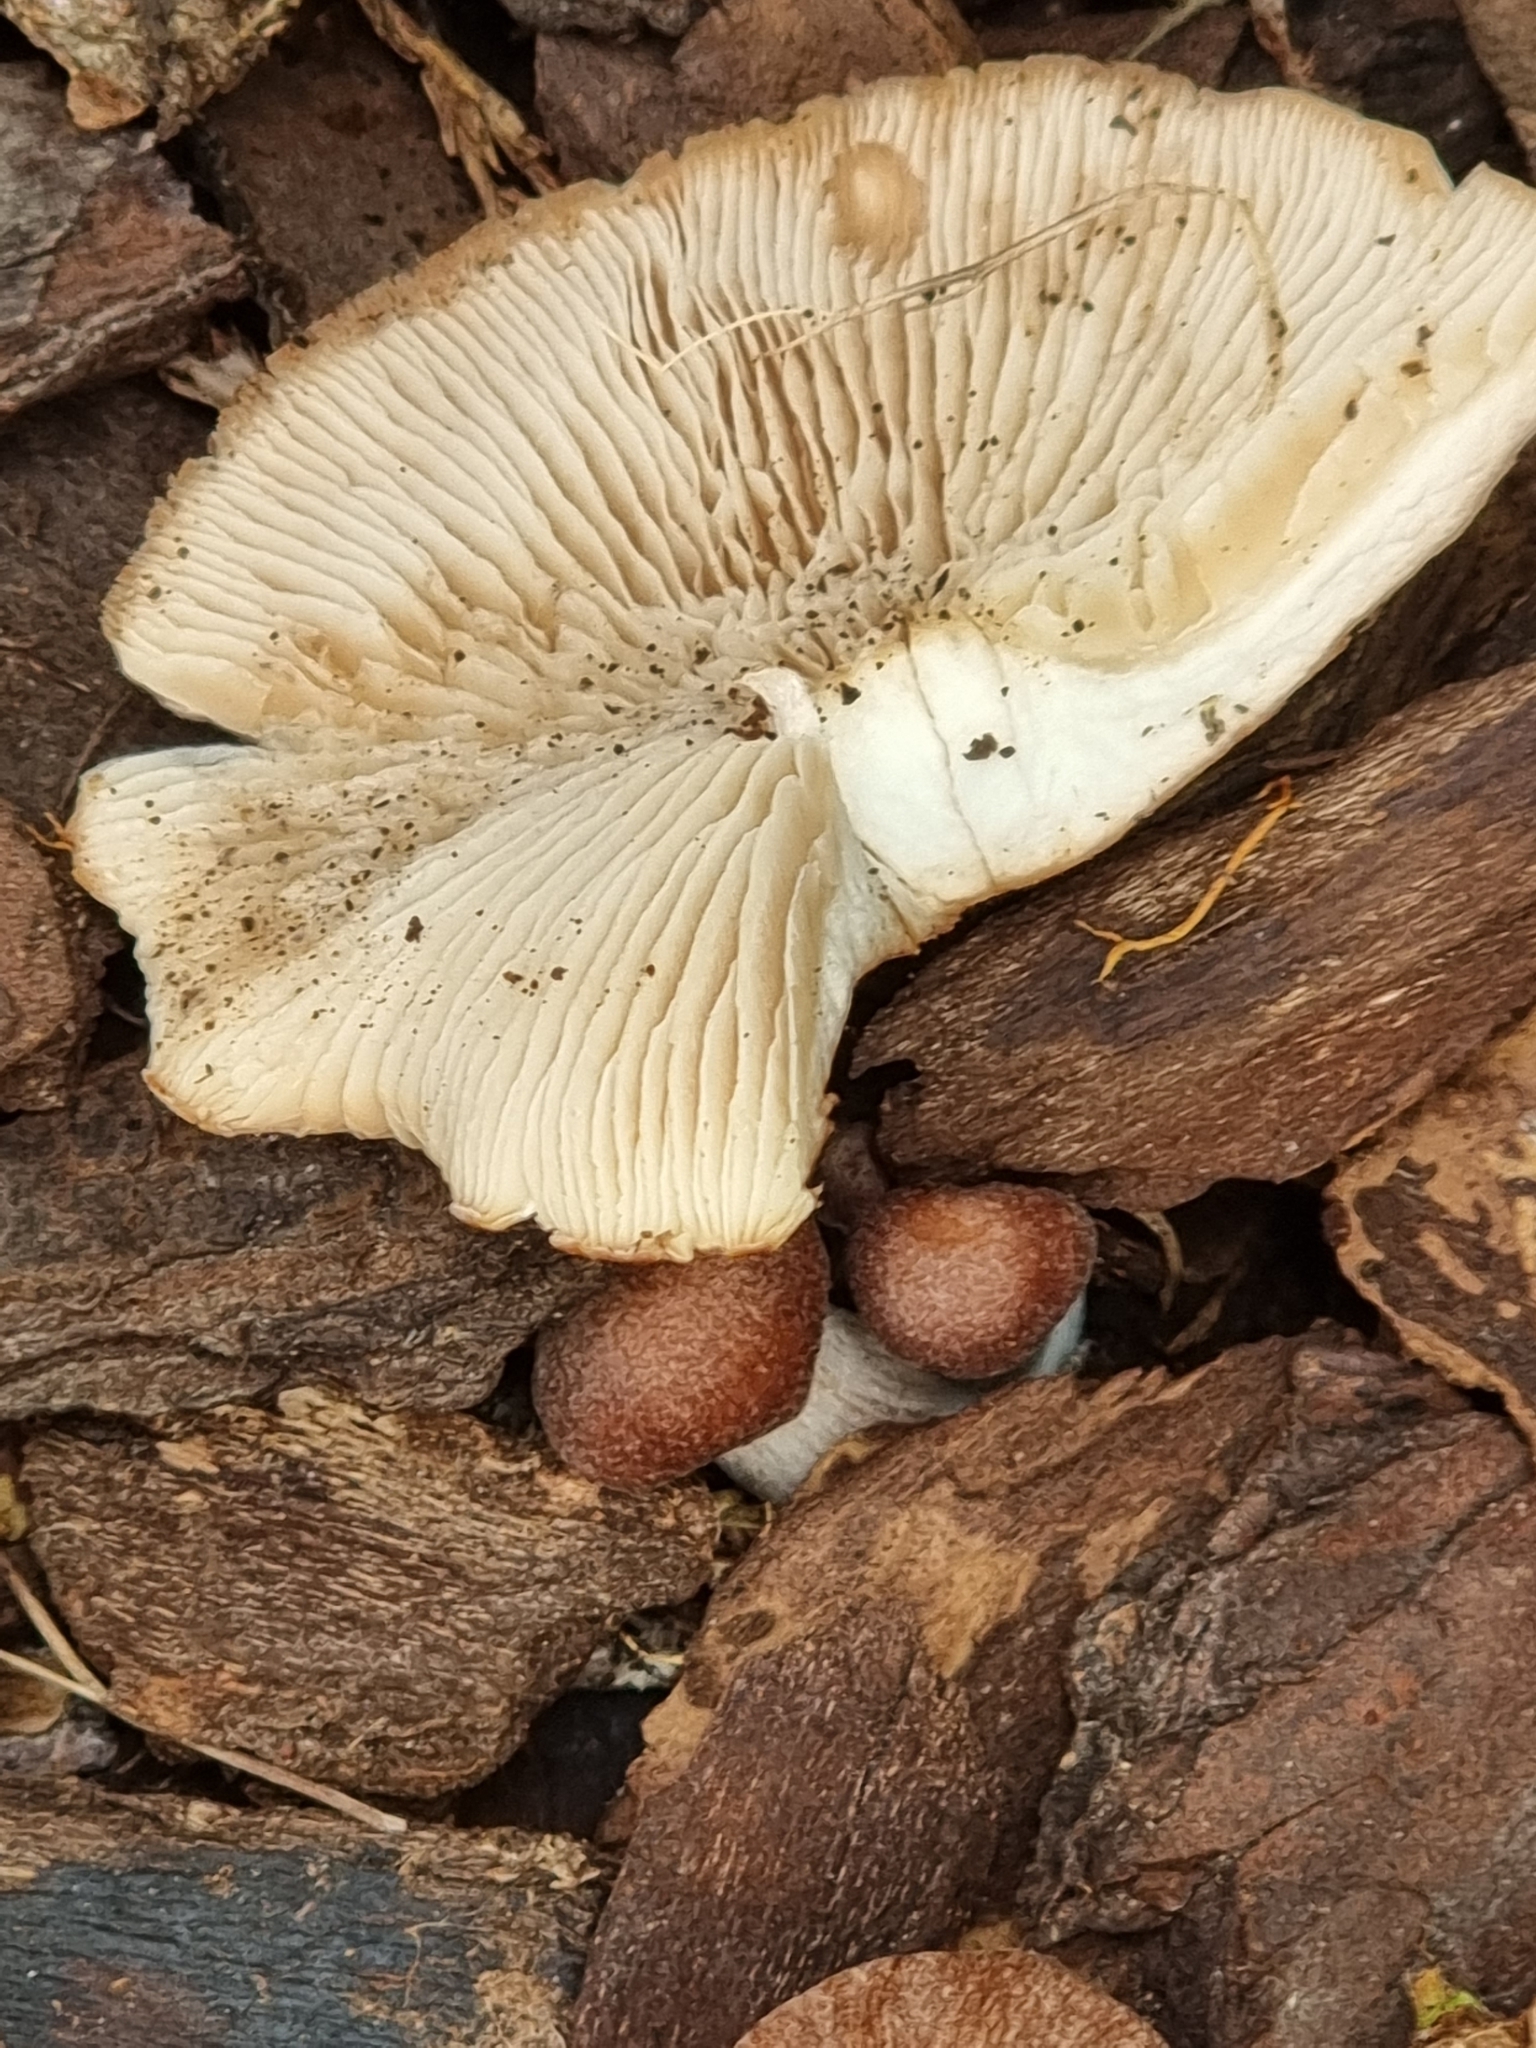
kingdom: Fungi
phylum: Basidiomycota
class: Agaricomycetes
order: Agaricales
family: Omphalotaceae
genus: Collybiopsis
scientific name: Collybiopsis luxurians
